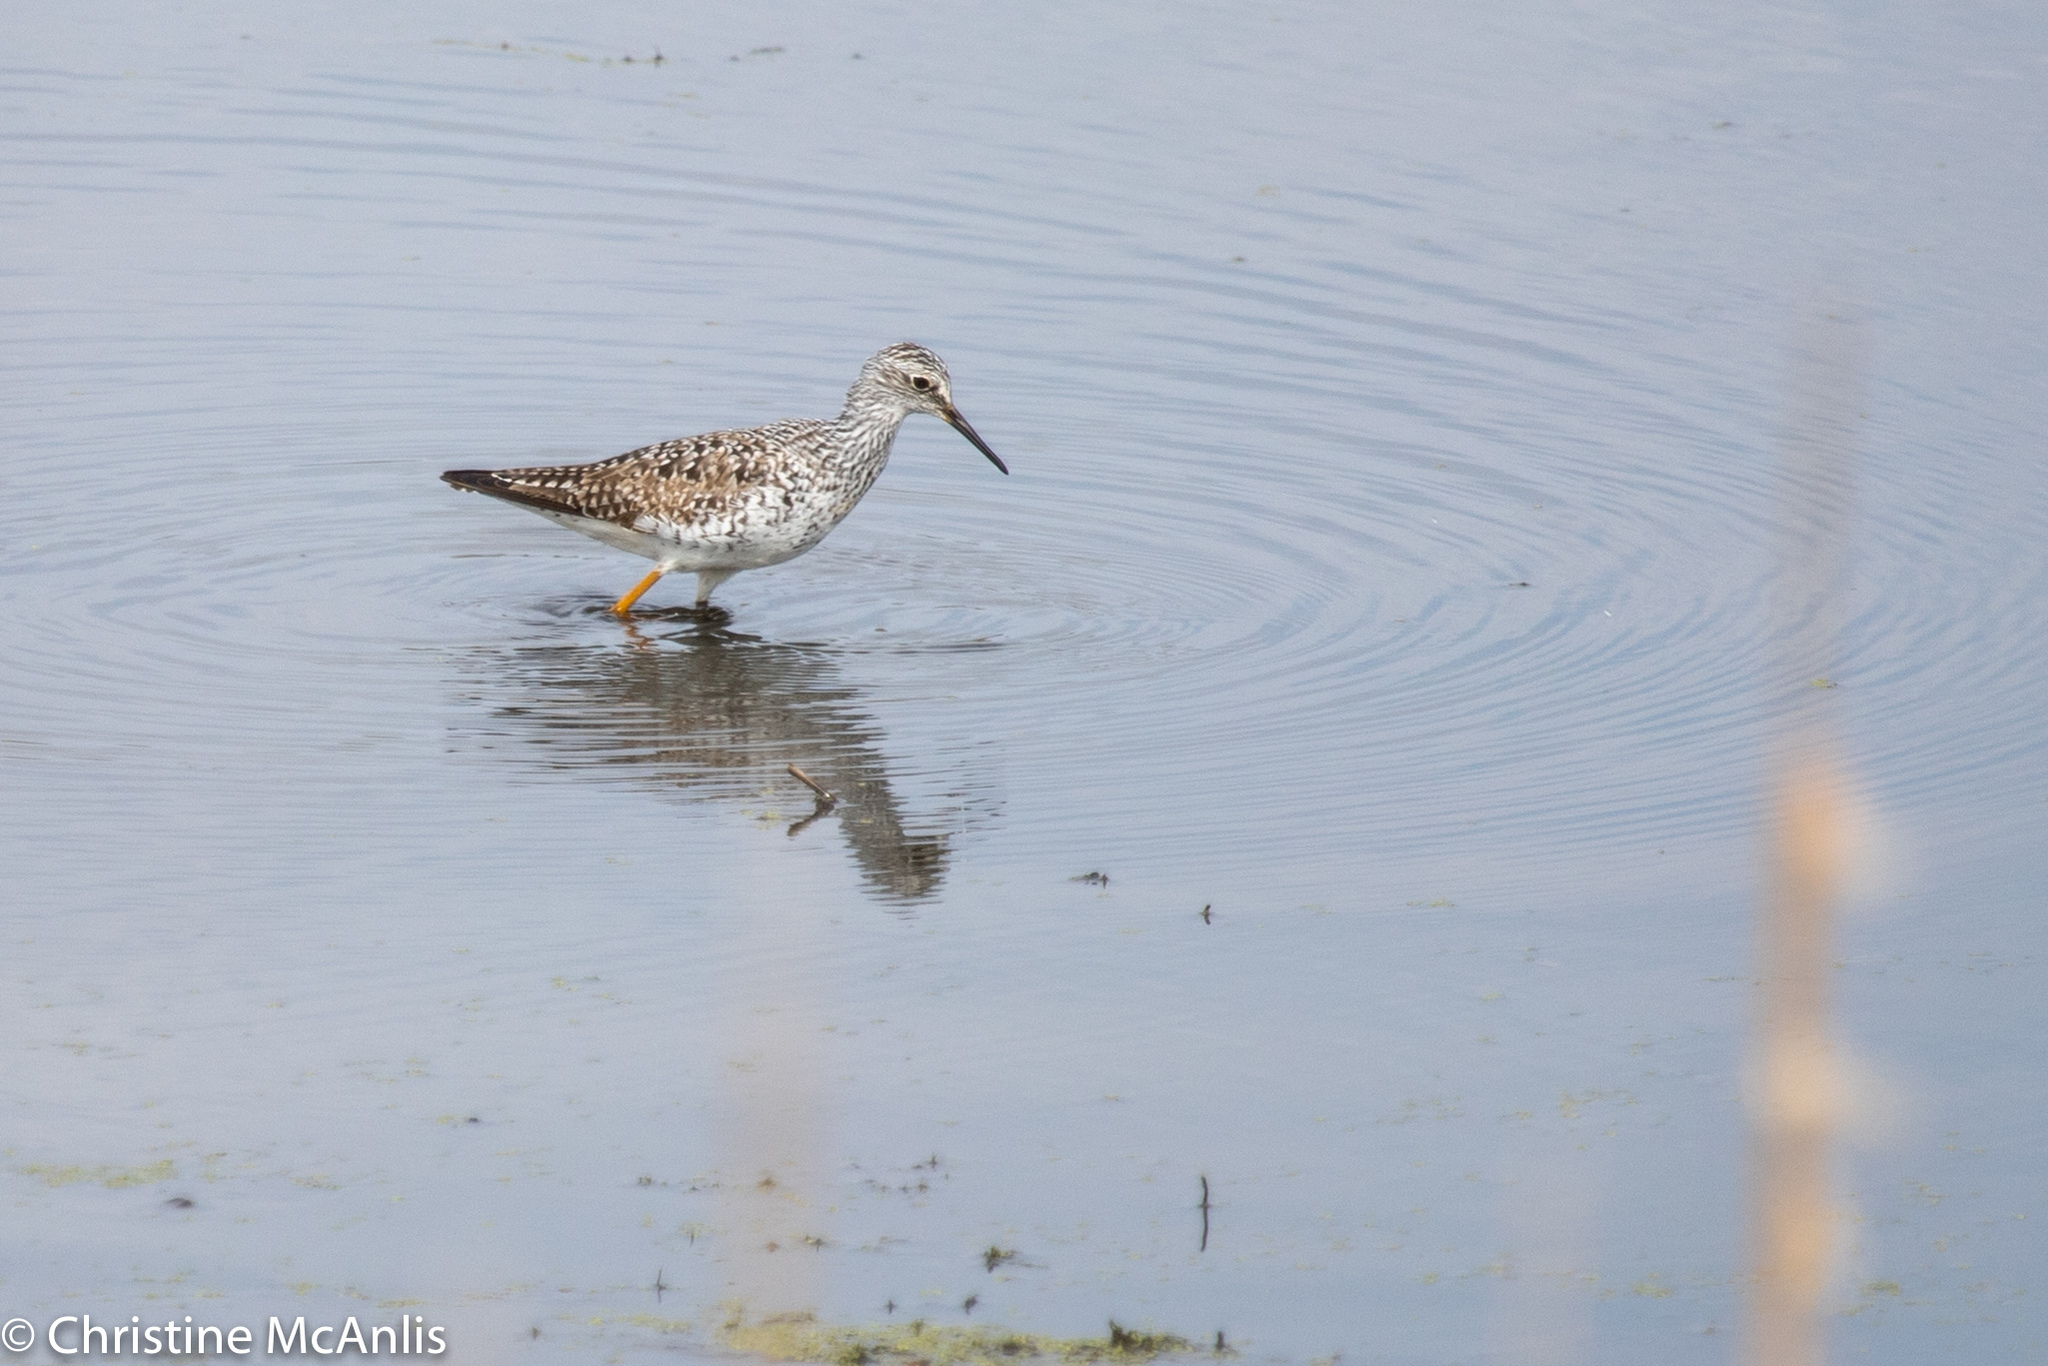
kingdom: Animalia
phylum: Chordata
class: Aves
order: Charadriiformes
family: Scolopacidae
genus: Tringa
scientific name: Tringa melanoleuca
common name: Greater yellowlegs
